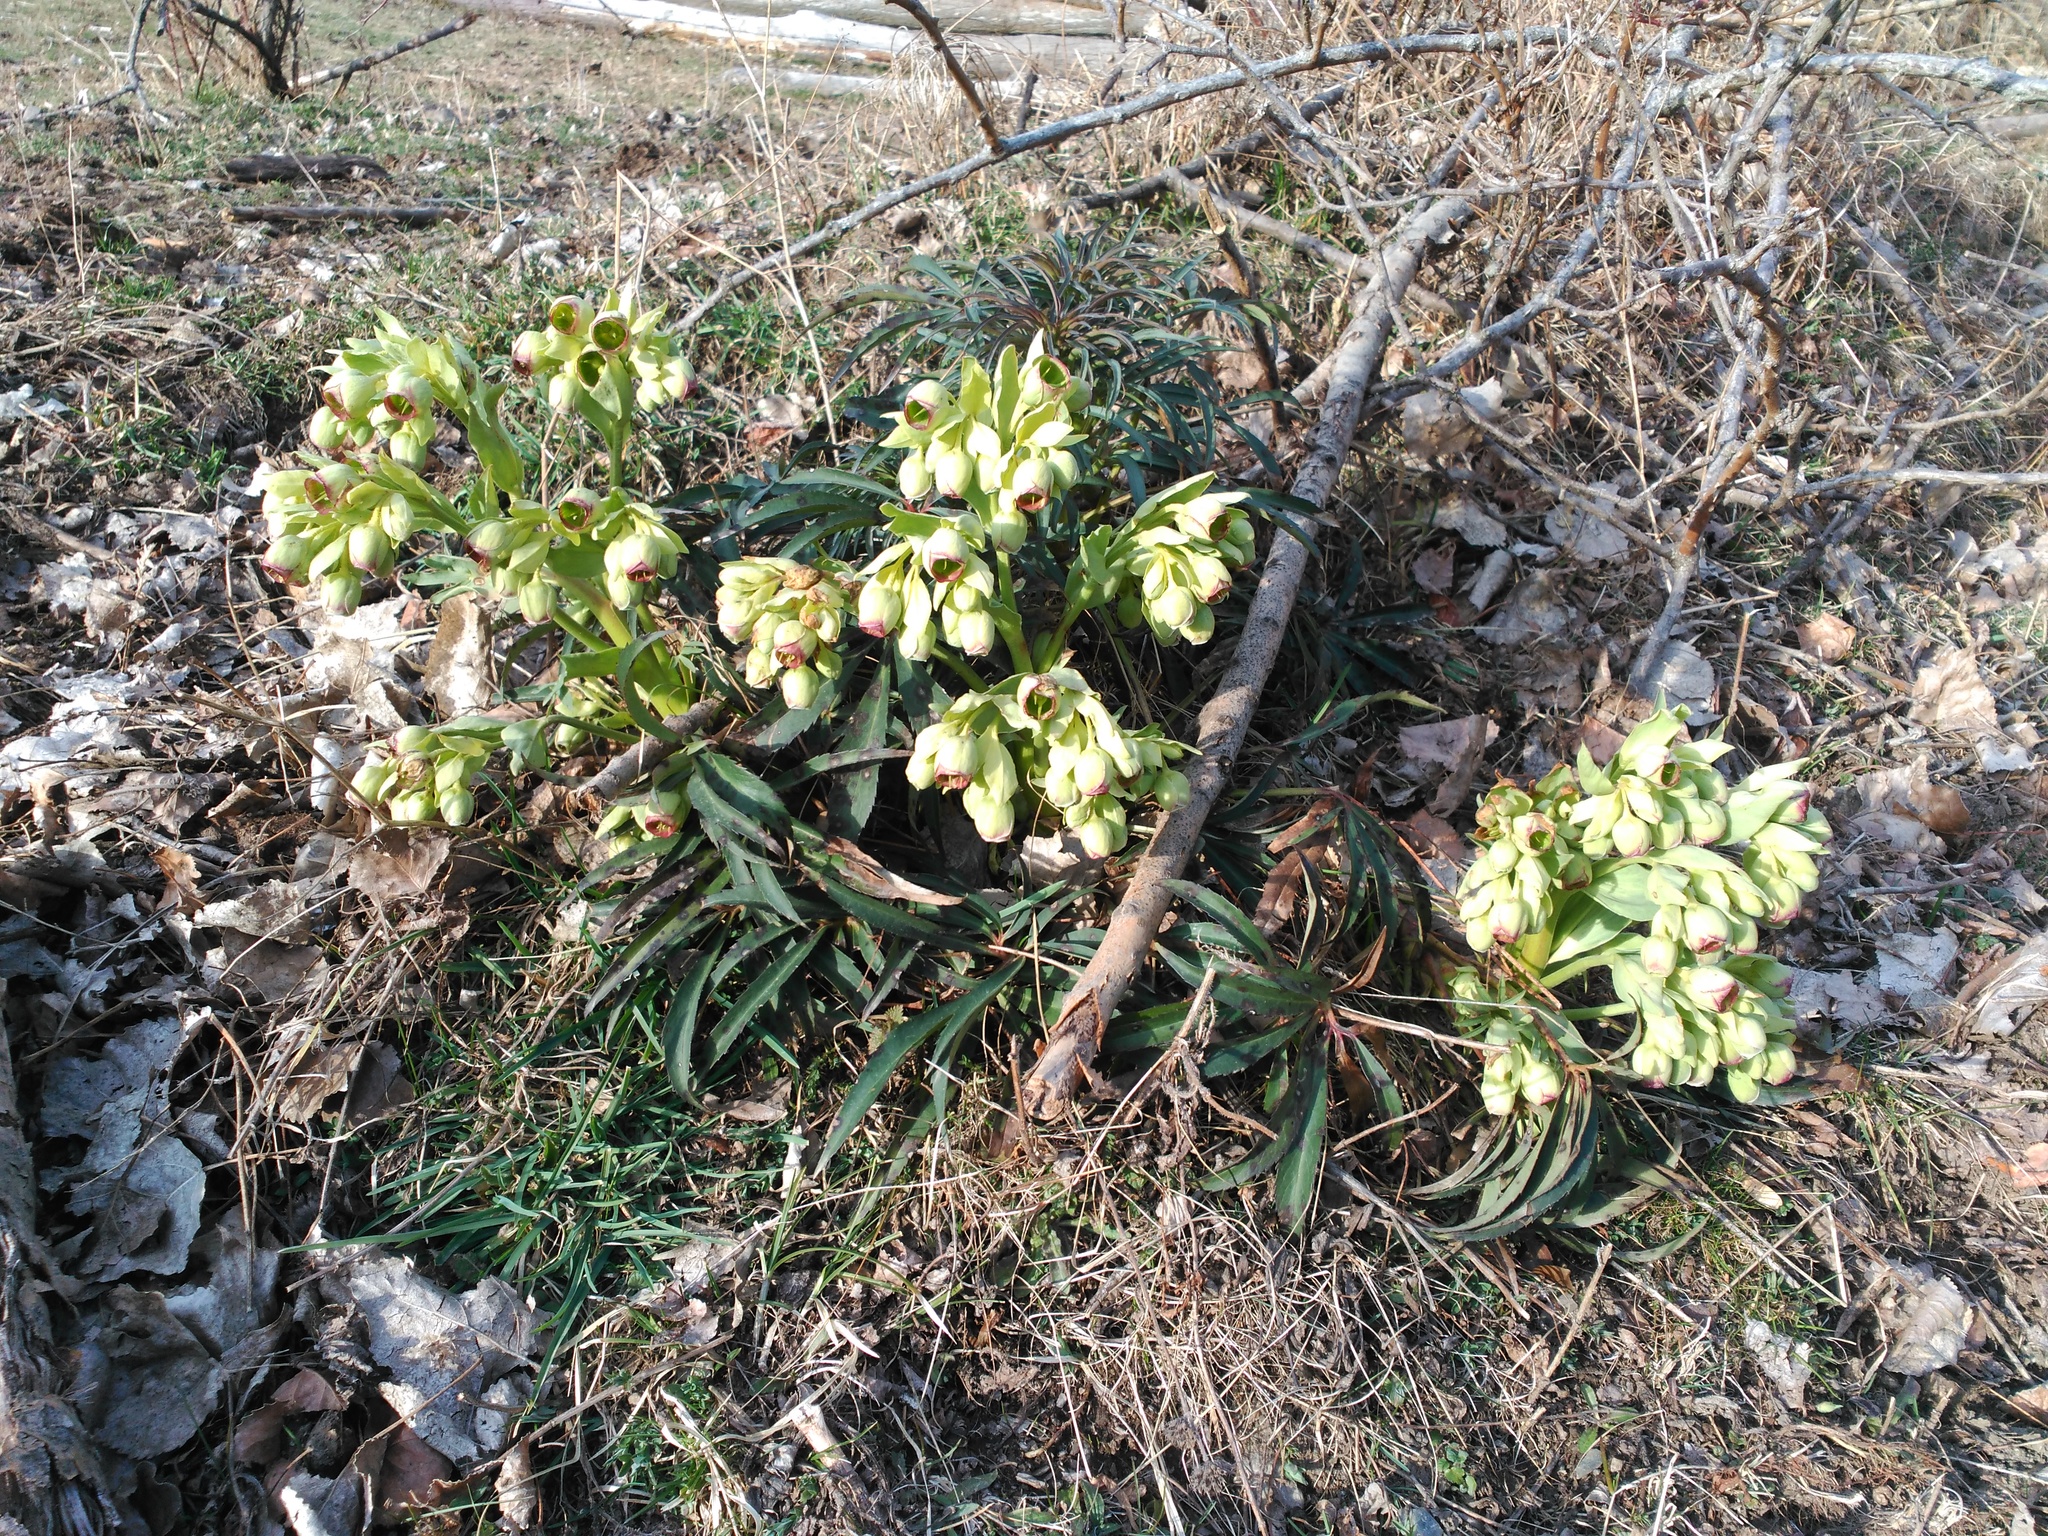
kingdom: Plantae
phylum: Tracheophyta
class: Magnoliopsida
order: Ranunculales
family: Ranunculaceae
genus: Helleborus
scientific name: Helleborus foetidus
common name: Stinking hellebore
